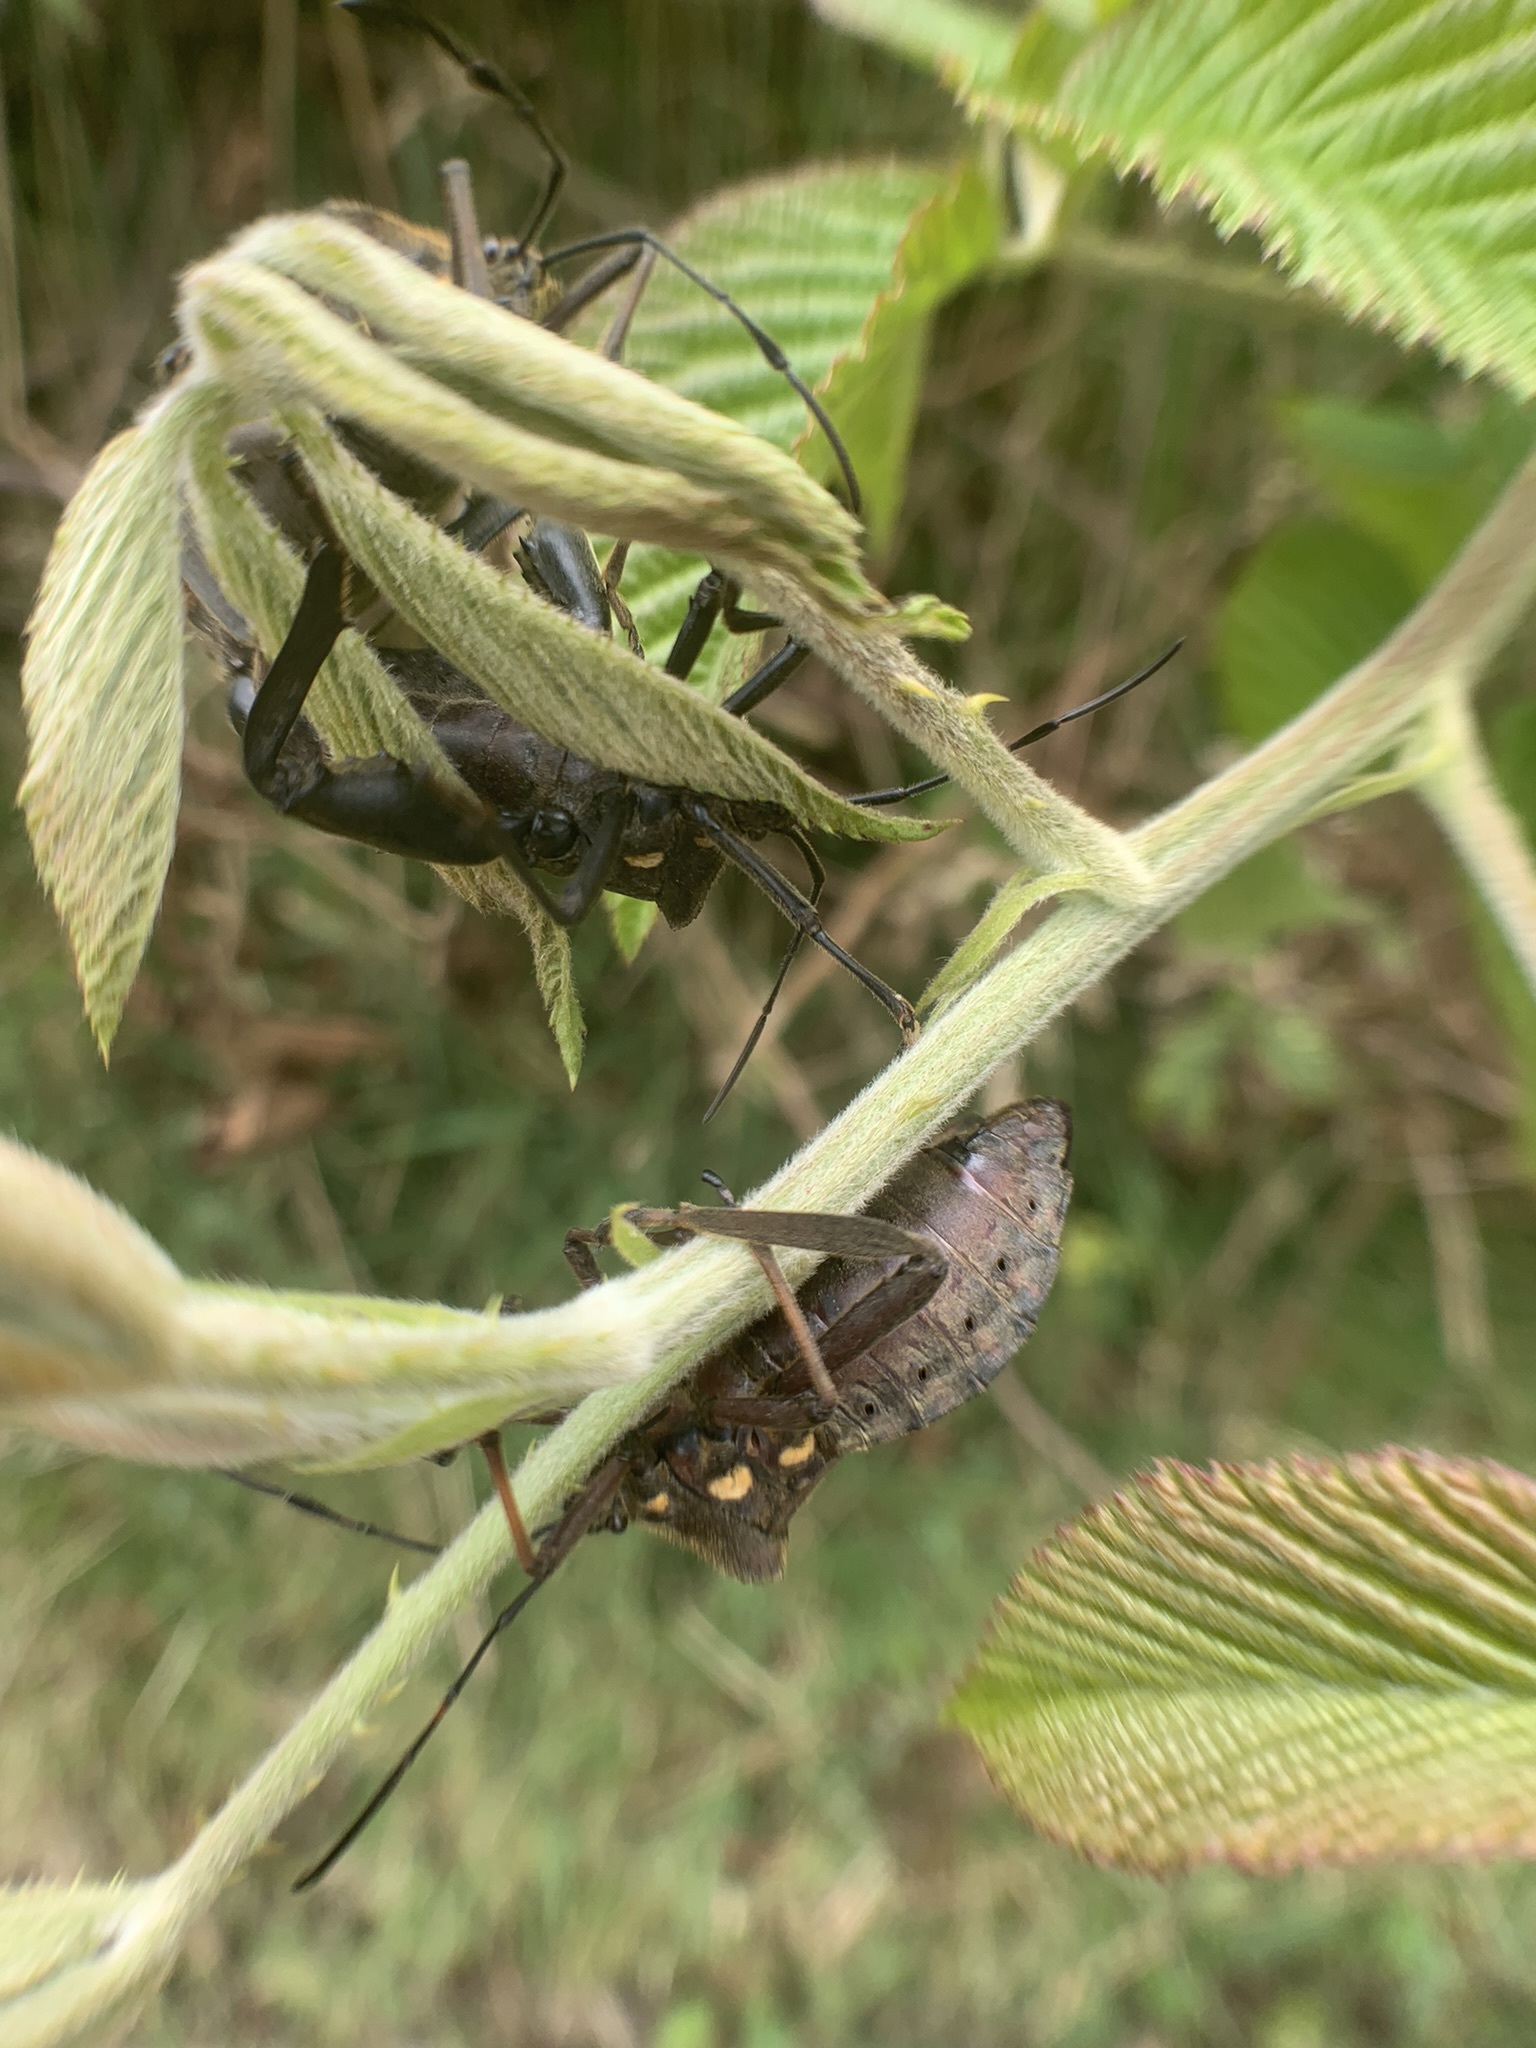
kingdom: Animalia
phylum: Arthropoda
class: Insecta
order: Hemiptera
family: Coreidae
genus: Thasus
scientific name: Thasus heteropus
